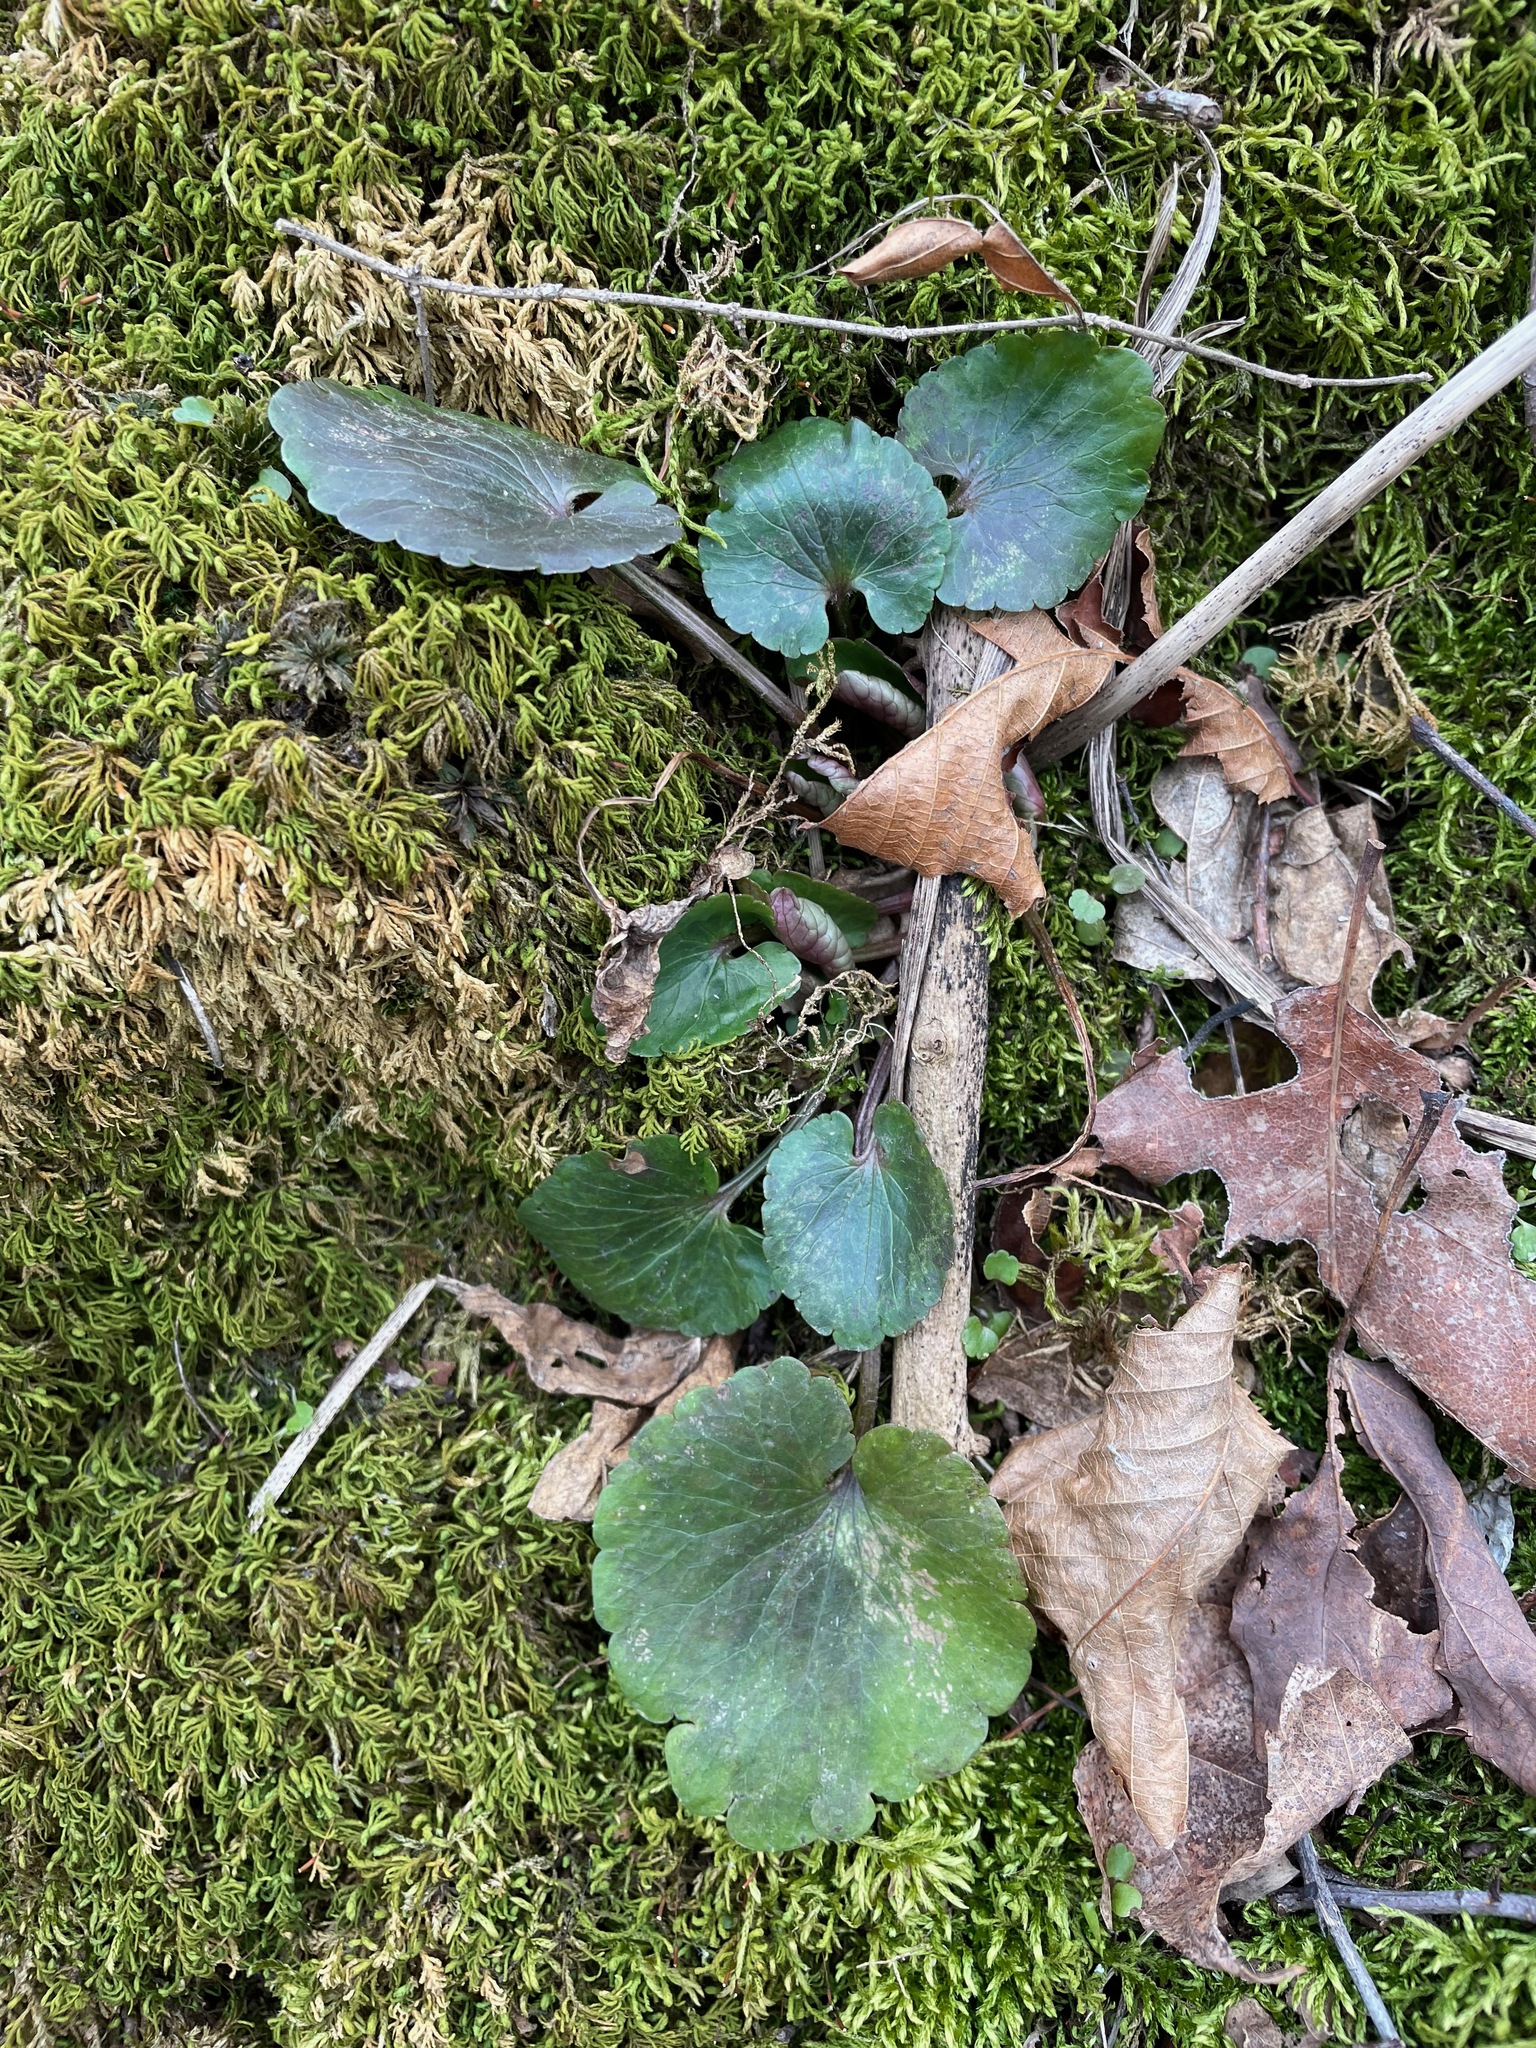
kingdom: Plantae
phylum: Tracheophyta
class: Magnoliopsida
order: Ranunculales
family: Ranunculaceae
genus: Ranunculus
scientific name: Ranunculus abortivus
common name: Early wood buttercup
